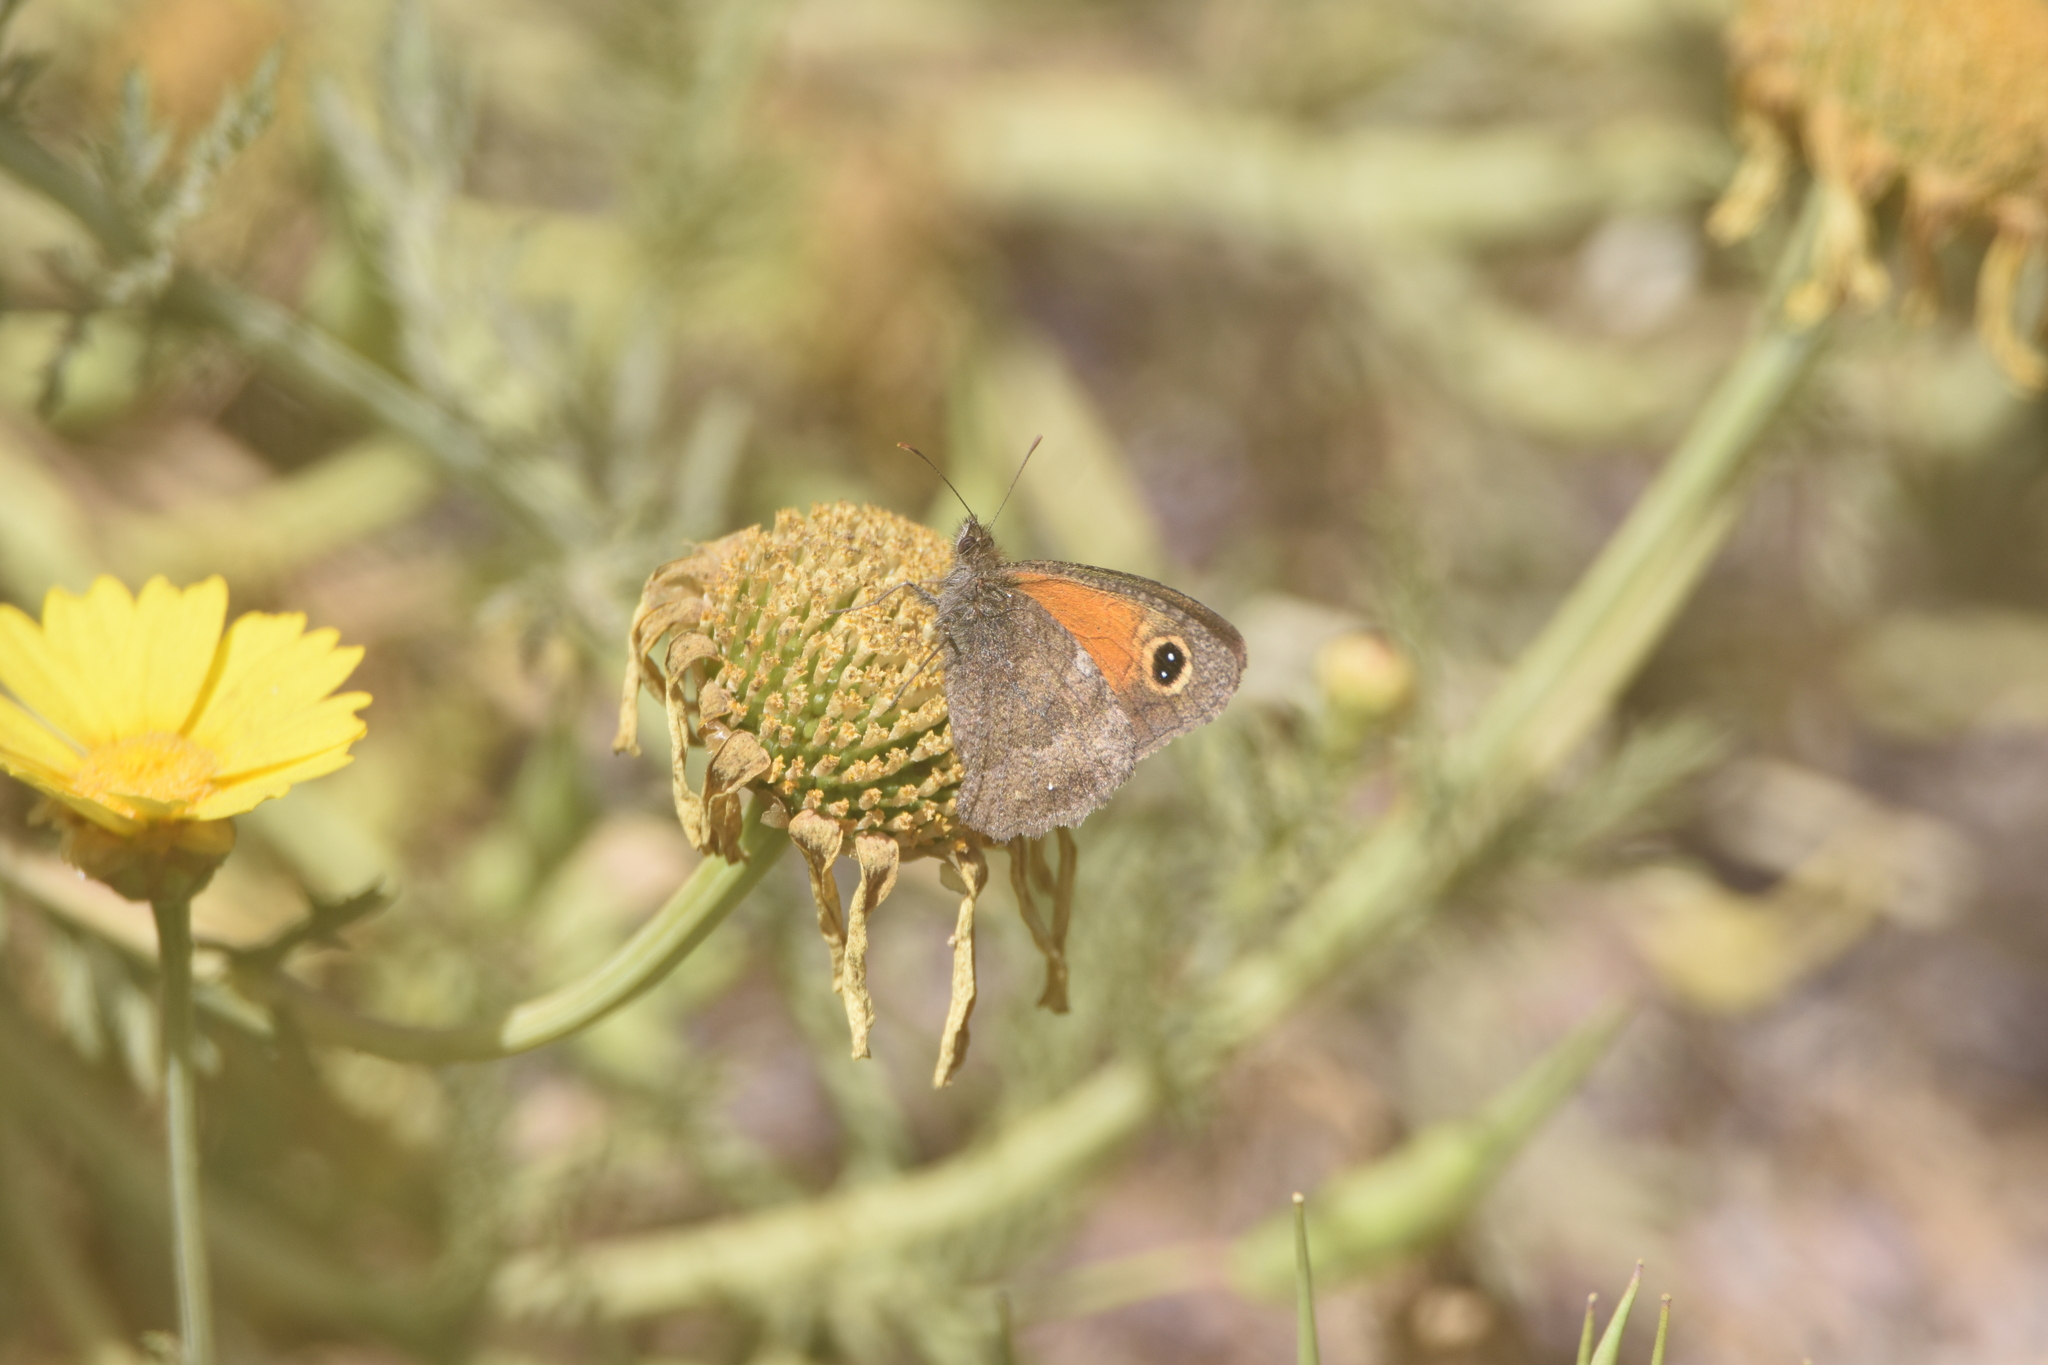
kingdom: Animalia
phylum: Arthropoda
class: Insecta
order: Lepidoptera
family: Nymphalidae
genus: Auca
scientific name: Auca coctei
